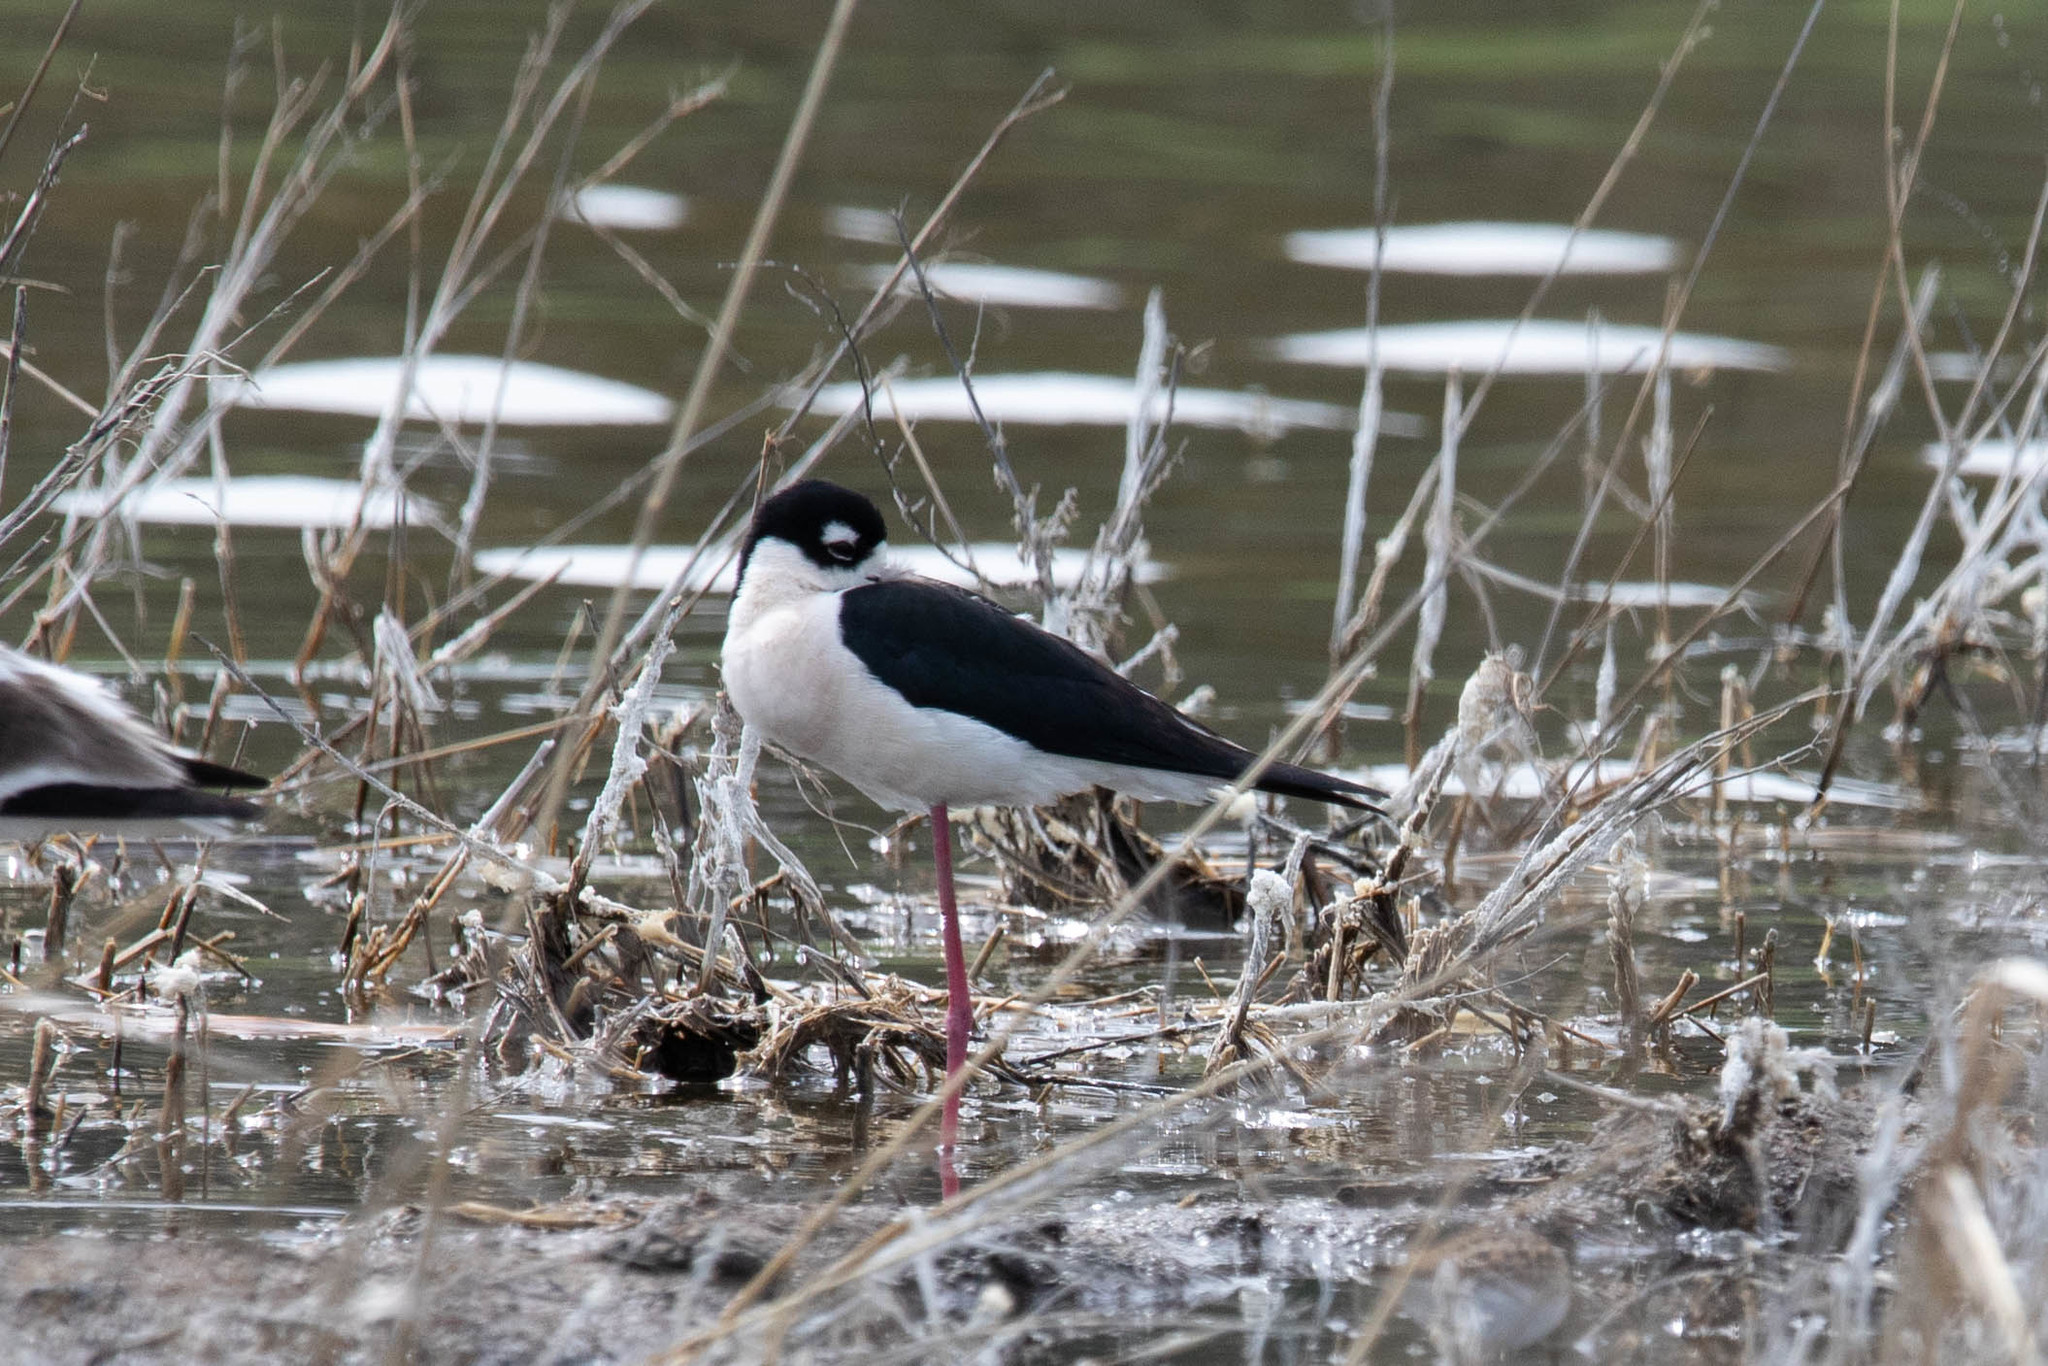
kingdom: Animalia
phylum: Chordata
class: Aves
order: Charadriiformes
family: Recurvirostridae
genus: Himantopus
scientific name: Himantopus mexicanus
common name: Black-necked stilt
